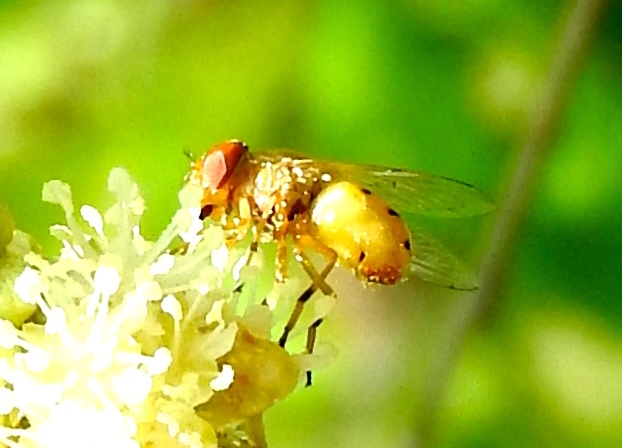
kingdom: Animalia
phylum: Arthropoda
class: Insecta
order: Diptera
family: Syrphidae
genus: Copestylum
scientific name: Copestylum sexmaculatum
